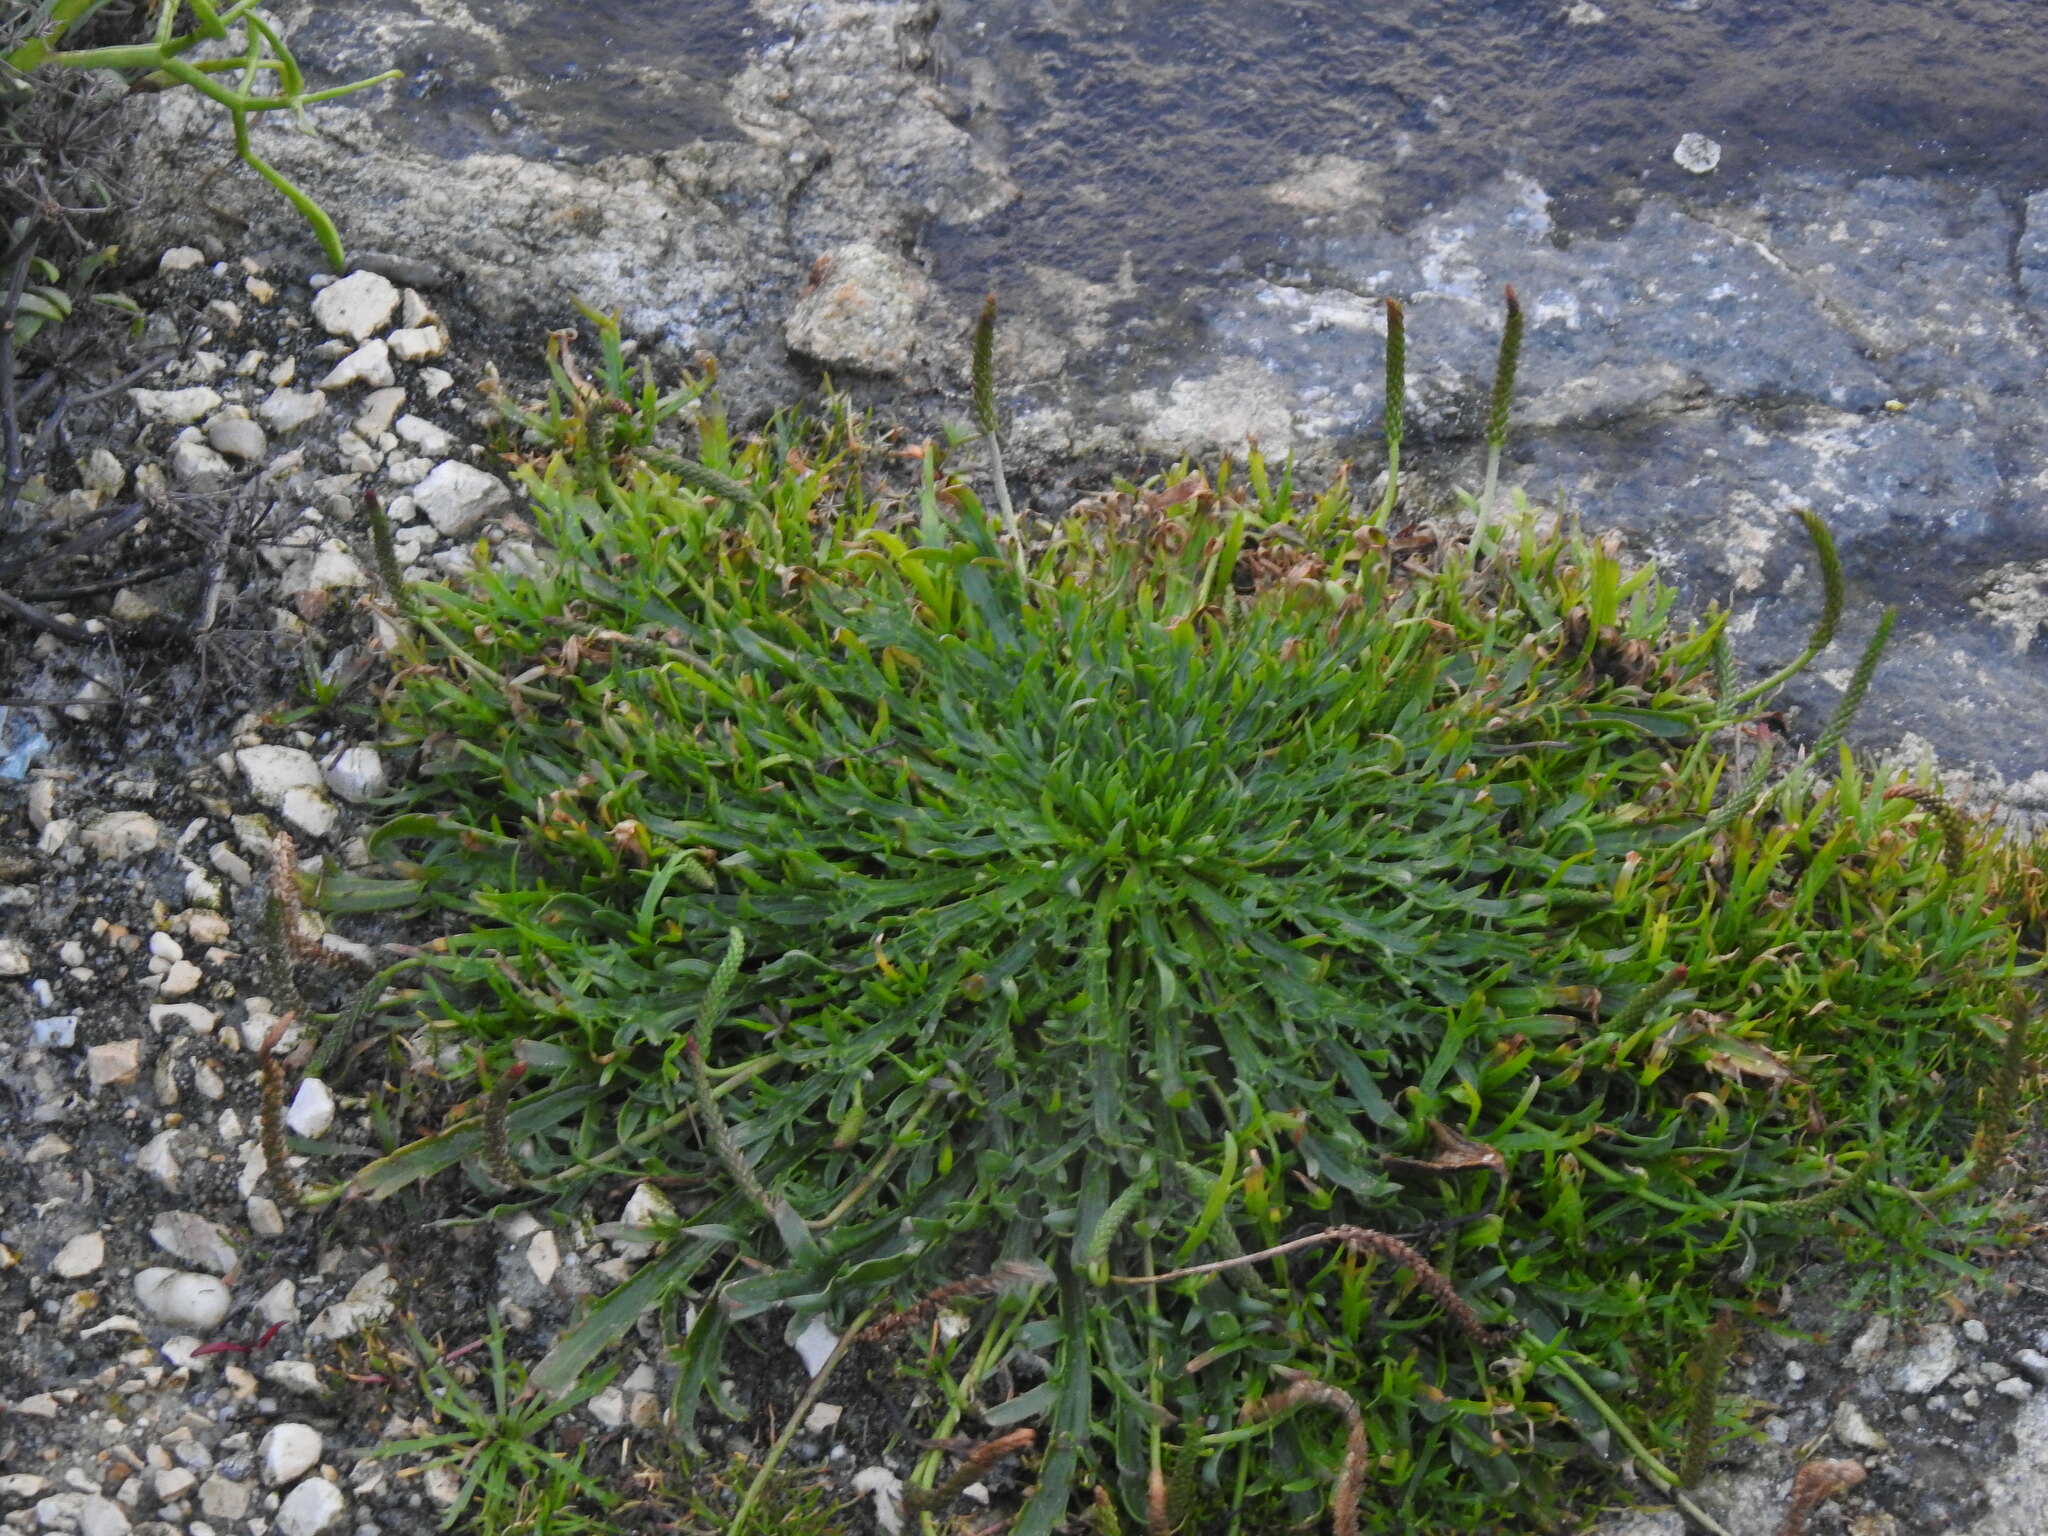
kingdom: Plantae
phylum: Tracheophyta
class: Magnoliopsida
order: Lamiales
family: Plantaginaceae
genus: Plantago
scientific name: Plantago coronopus
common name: Buck's-horn plantain
